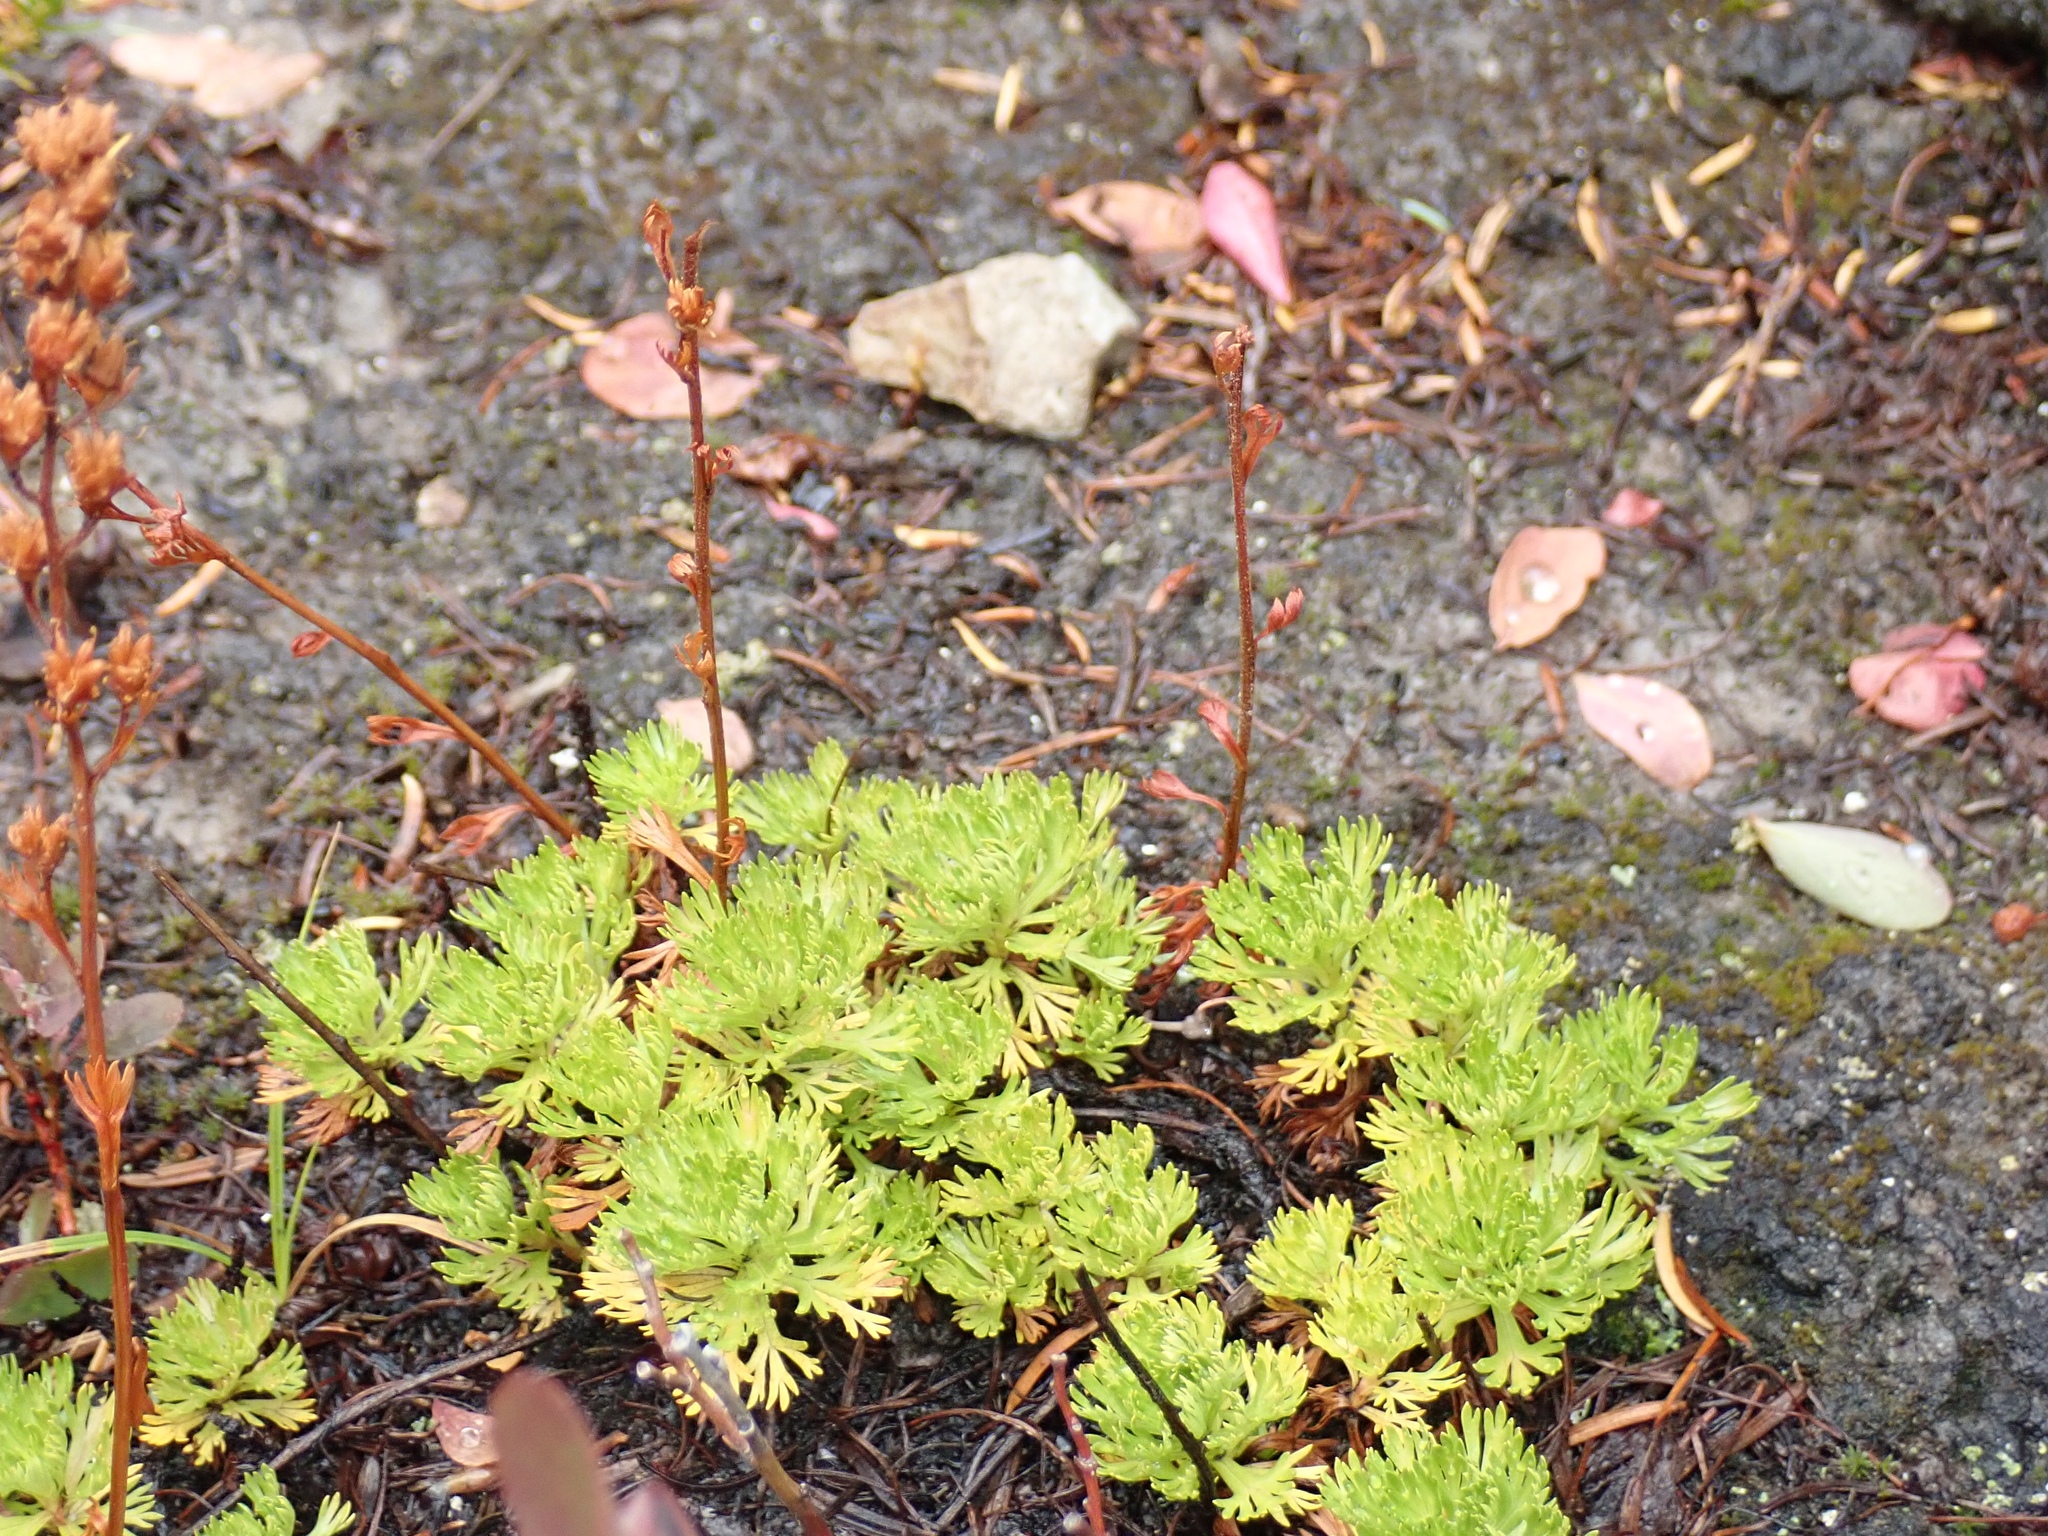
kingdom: Plantae
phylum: Tracheophyta
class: Magnoliopsida
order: Rosales
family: Rosaceae
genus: Luetkea
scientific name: Luetkea pectinata
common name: Partridgefoot
